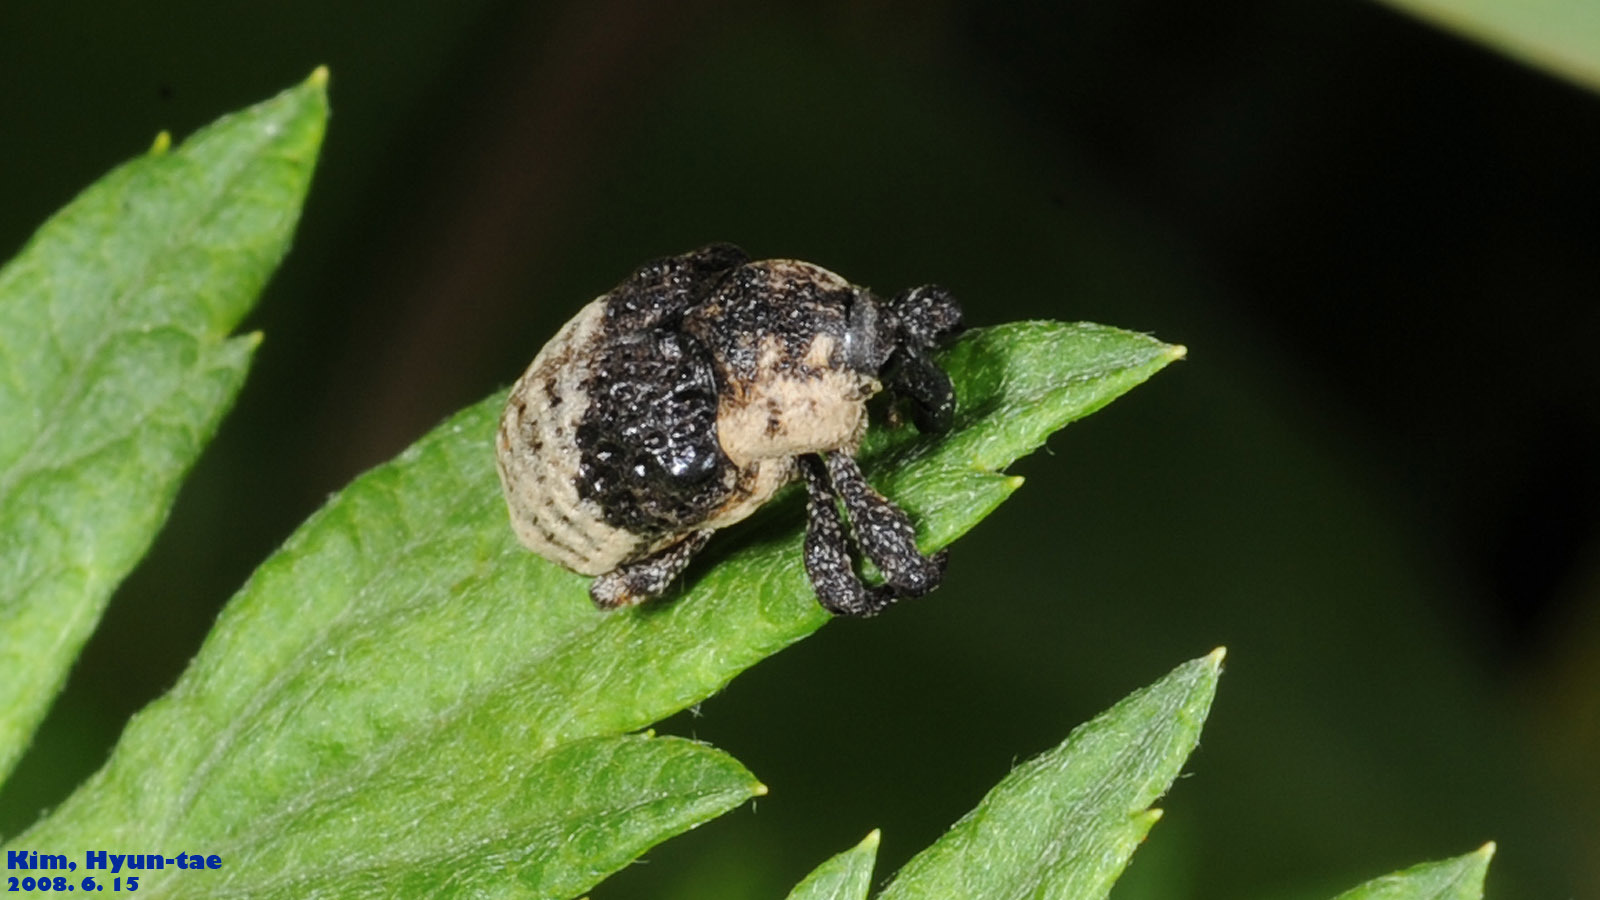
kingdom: Animalia
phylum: Arthropoda
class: Insecta
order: Coleoptera
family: Curculionidae
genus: Alcides
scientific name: Alcides trifidus
